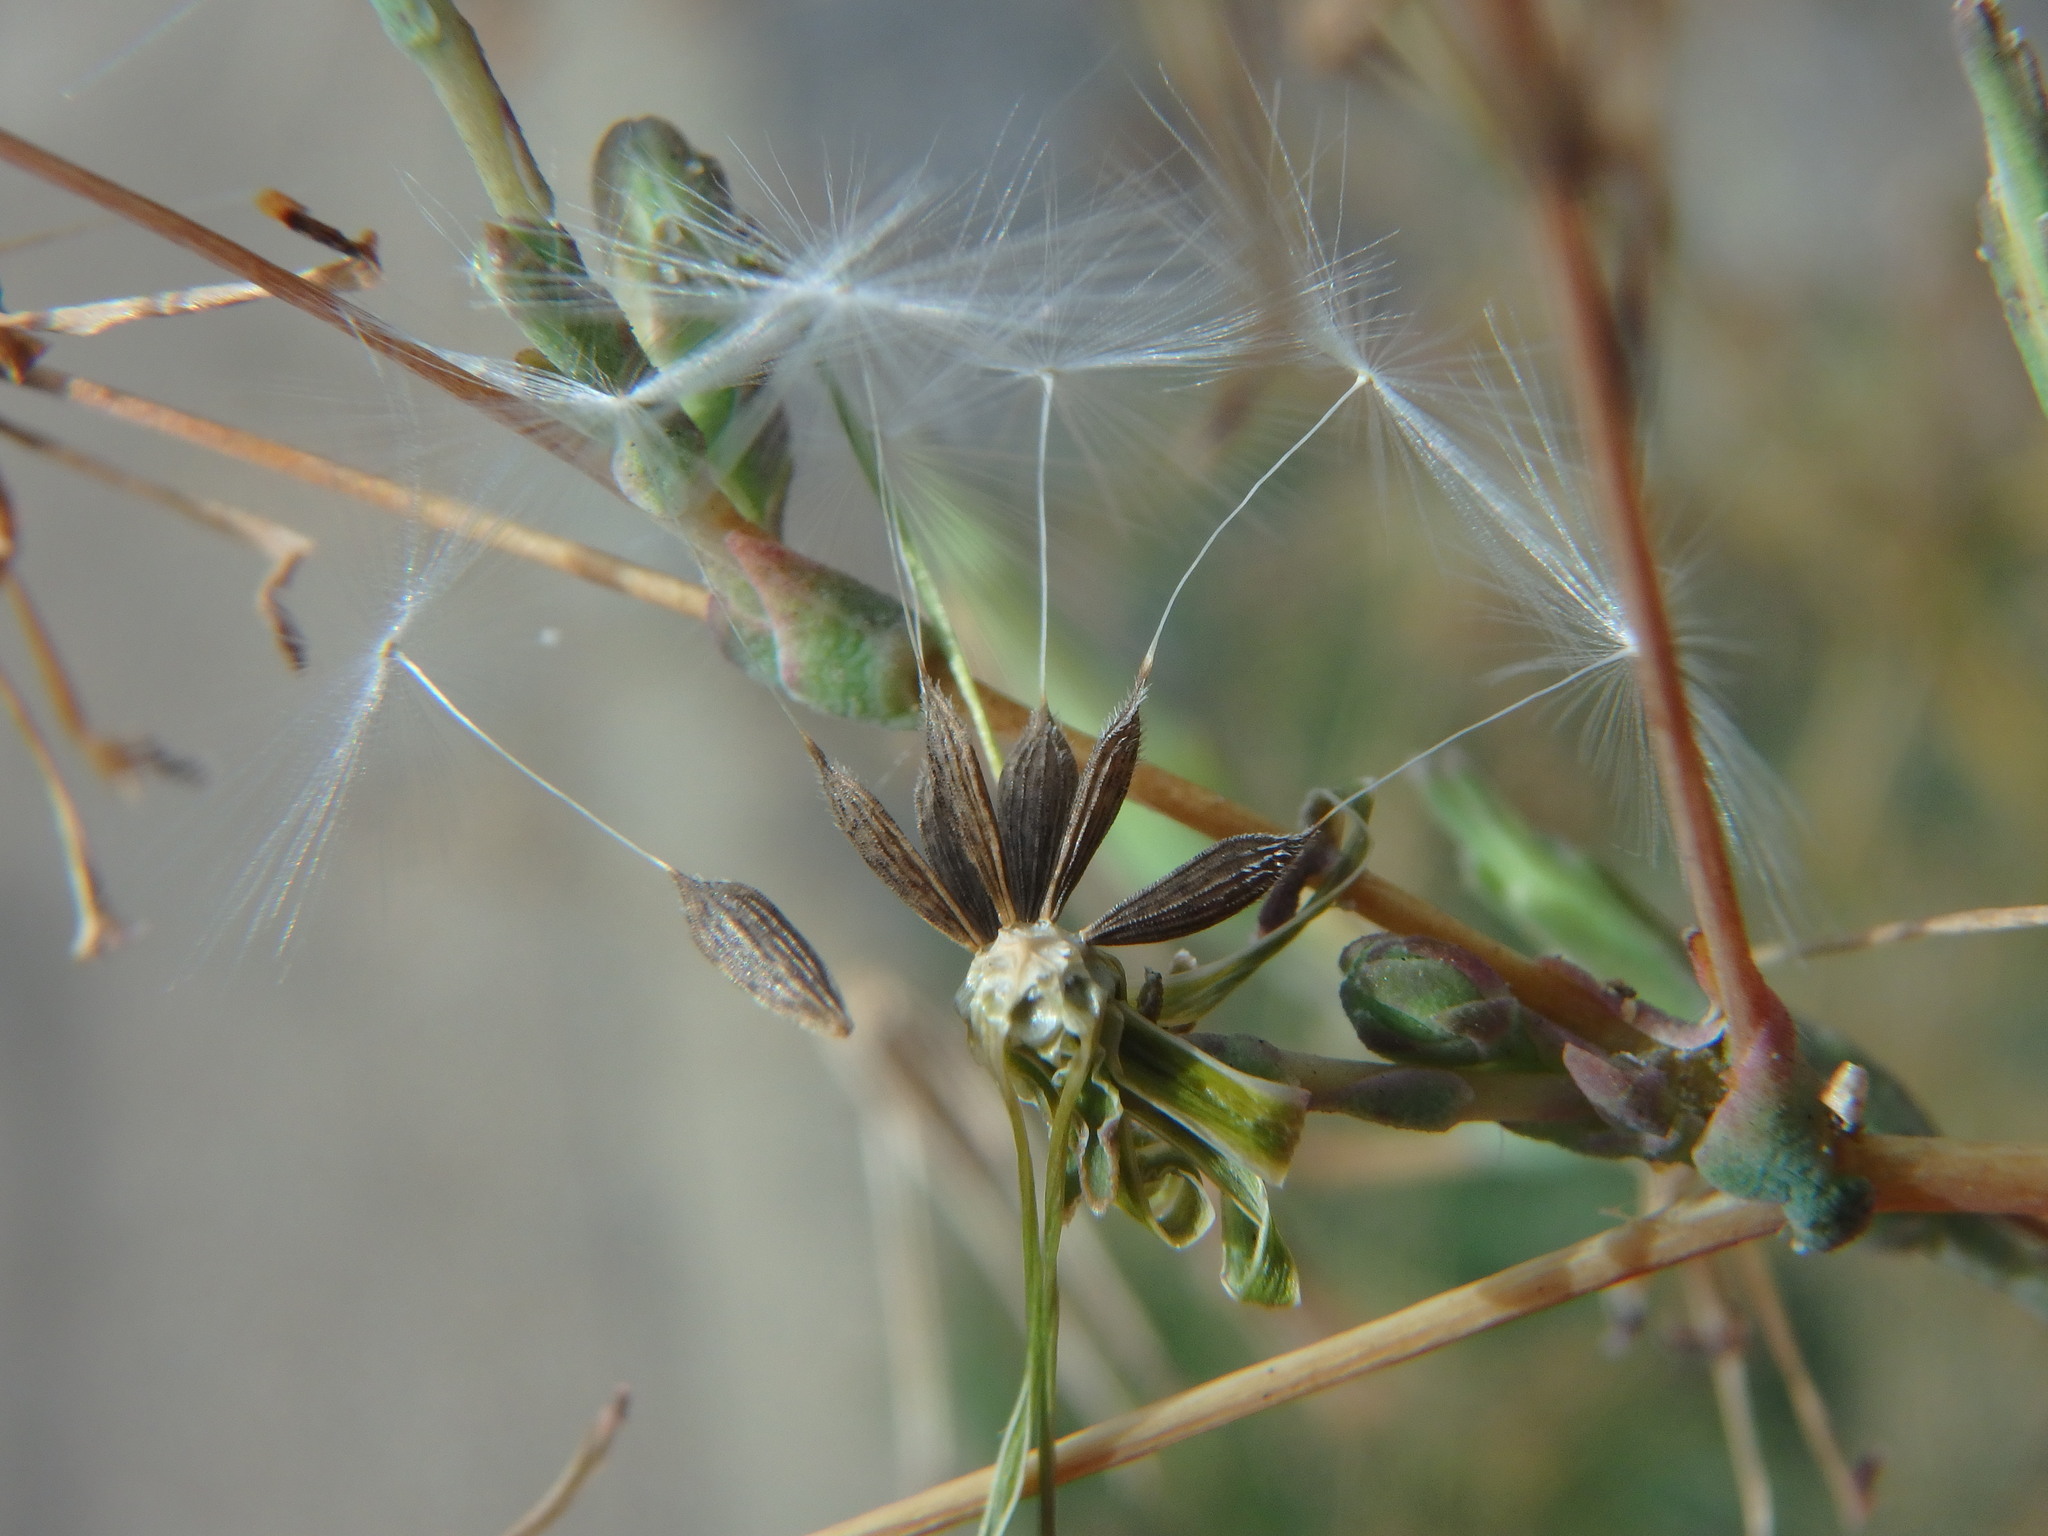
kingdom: Plantae
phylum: Tracheophyta
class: Magnoliopsida
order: Asterales
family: Asteraceae
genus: Lactuca
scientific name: Lactuca serriola
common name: Prickly lettuce
